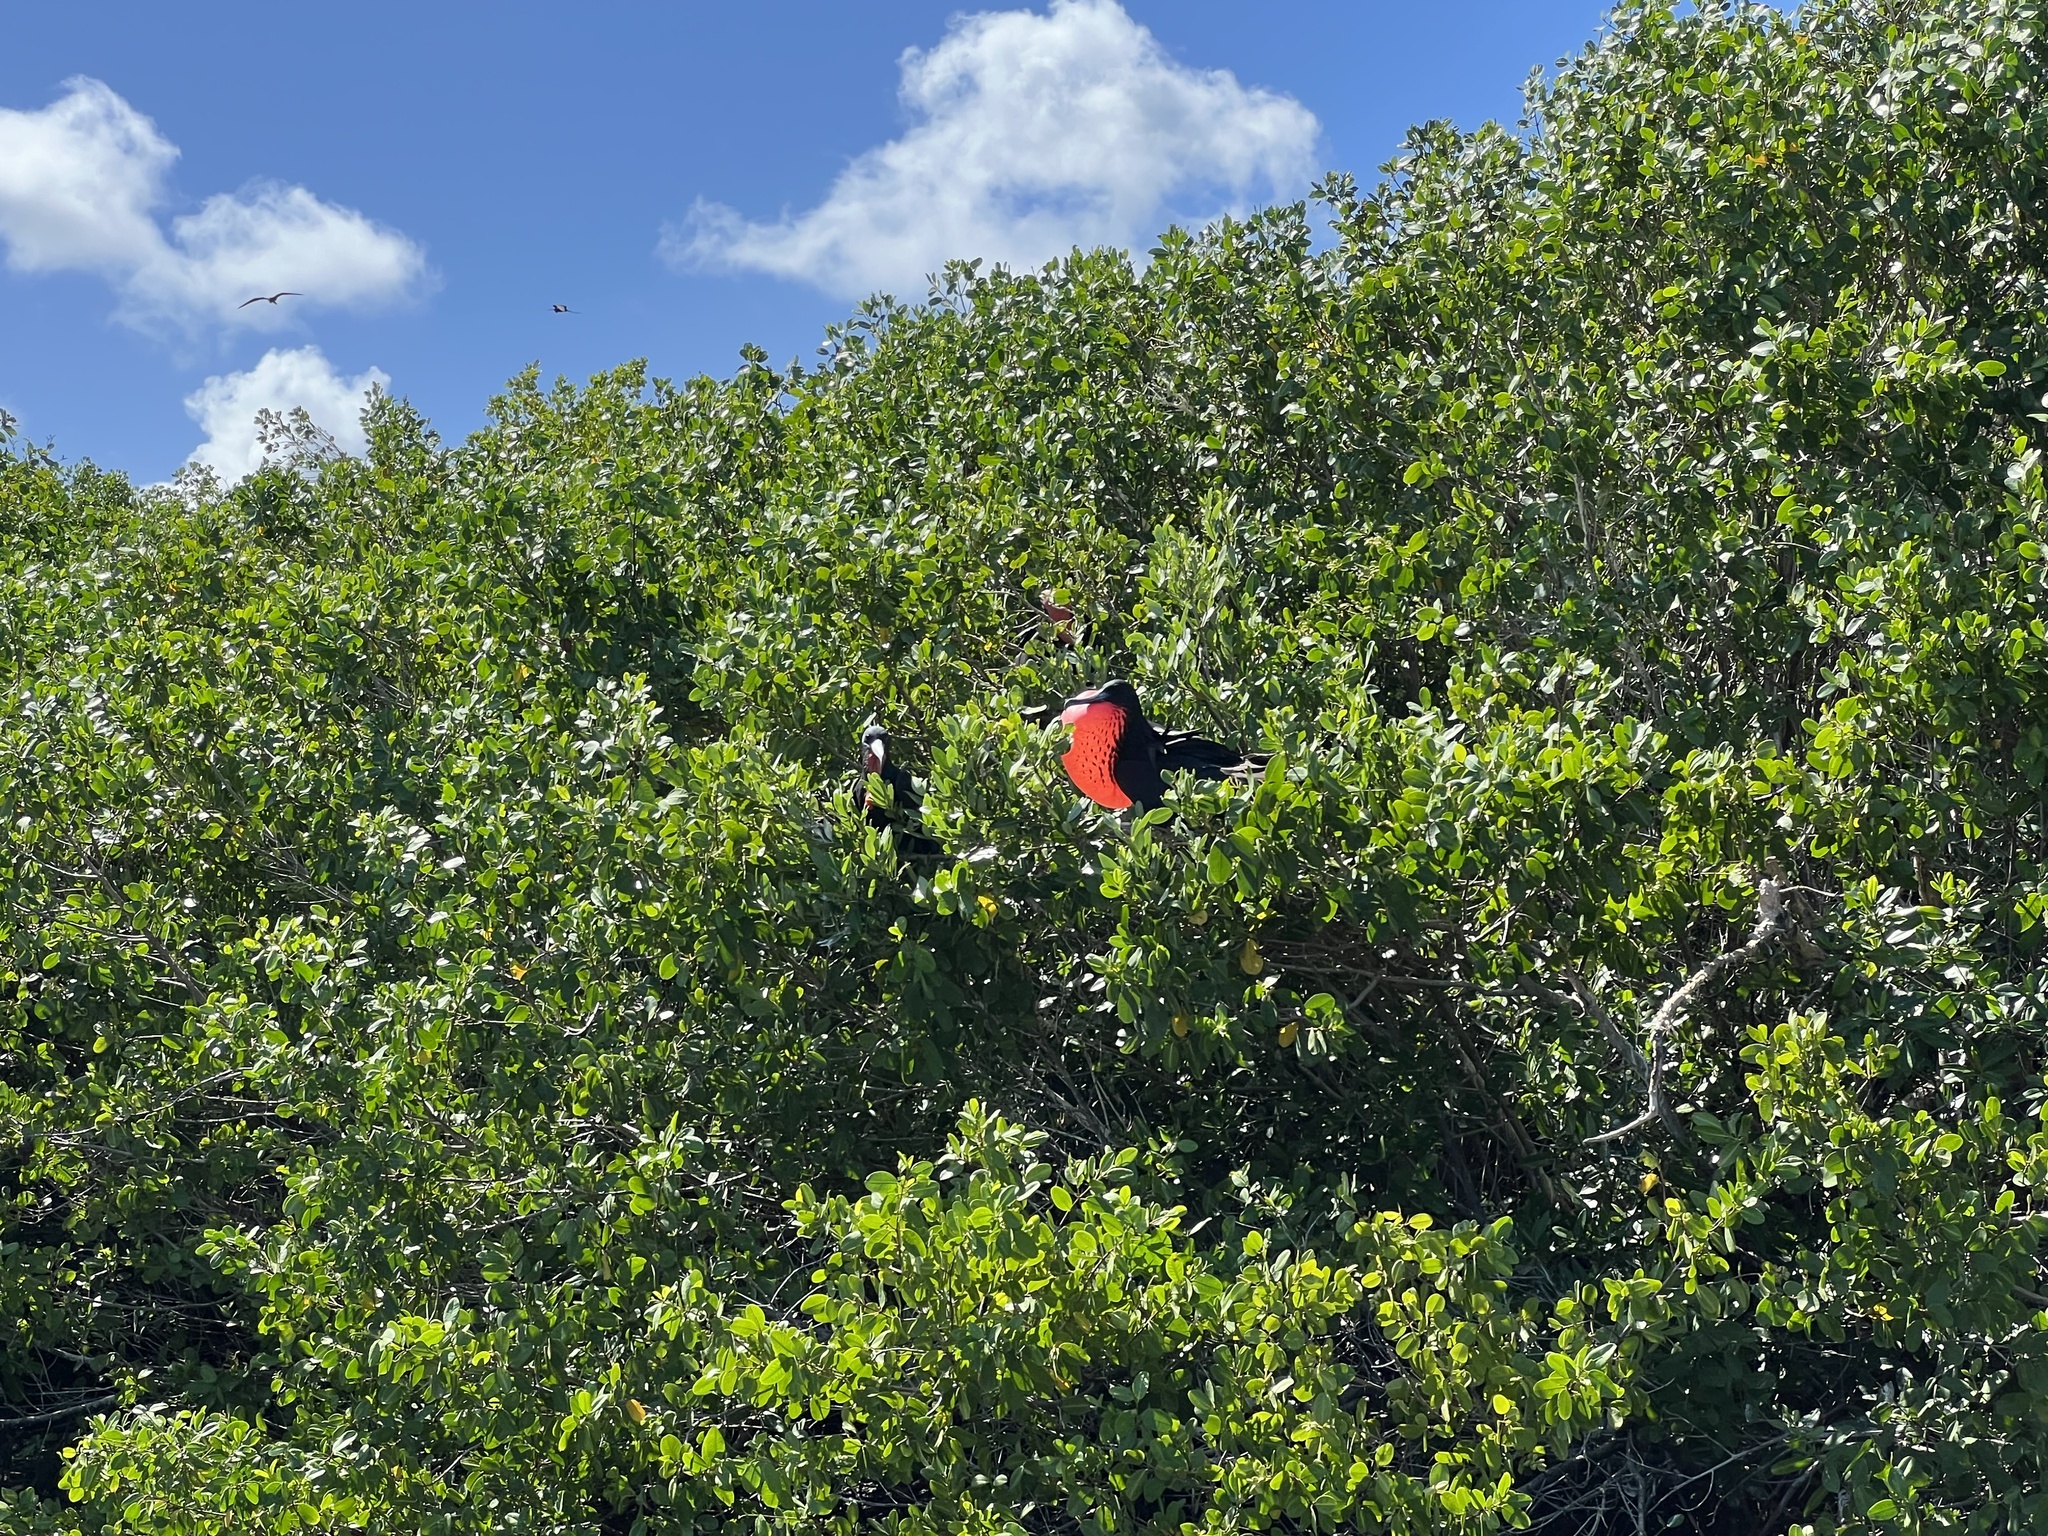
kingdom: Animalia
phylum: Chordata
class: Aves
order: Suliformes
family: Fregatidae
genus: Fregata
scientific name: Fregata magnificens
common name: Magnificent frigatebird
